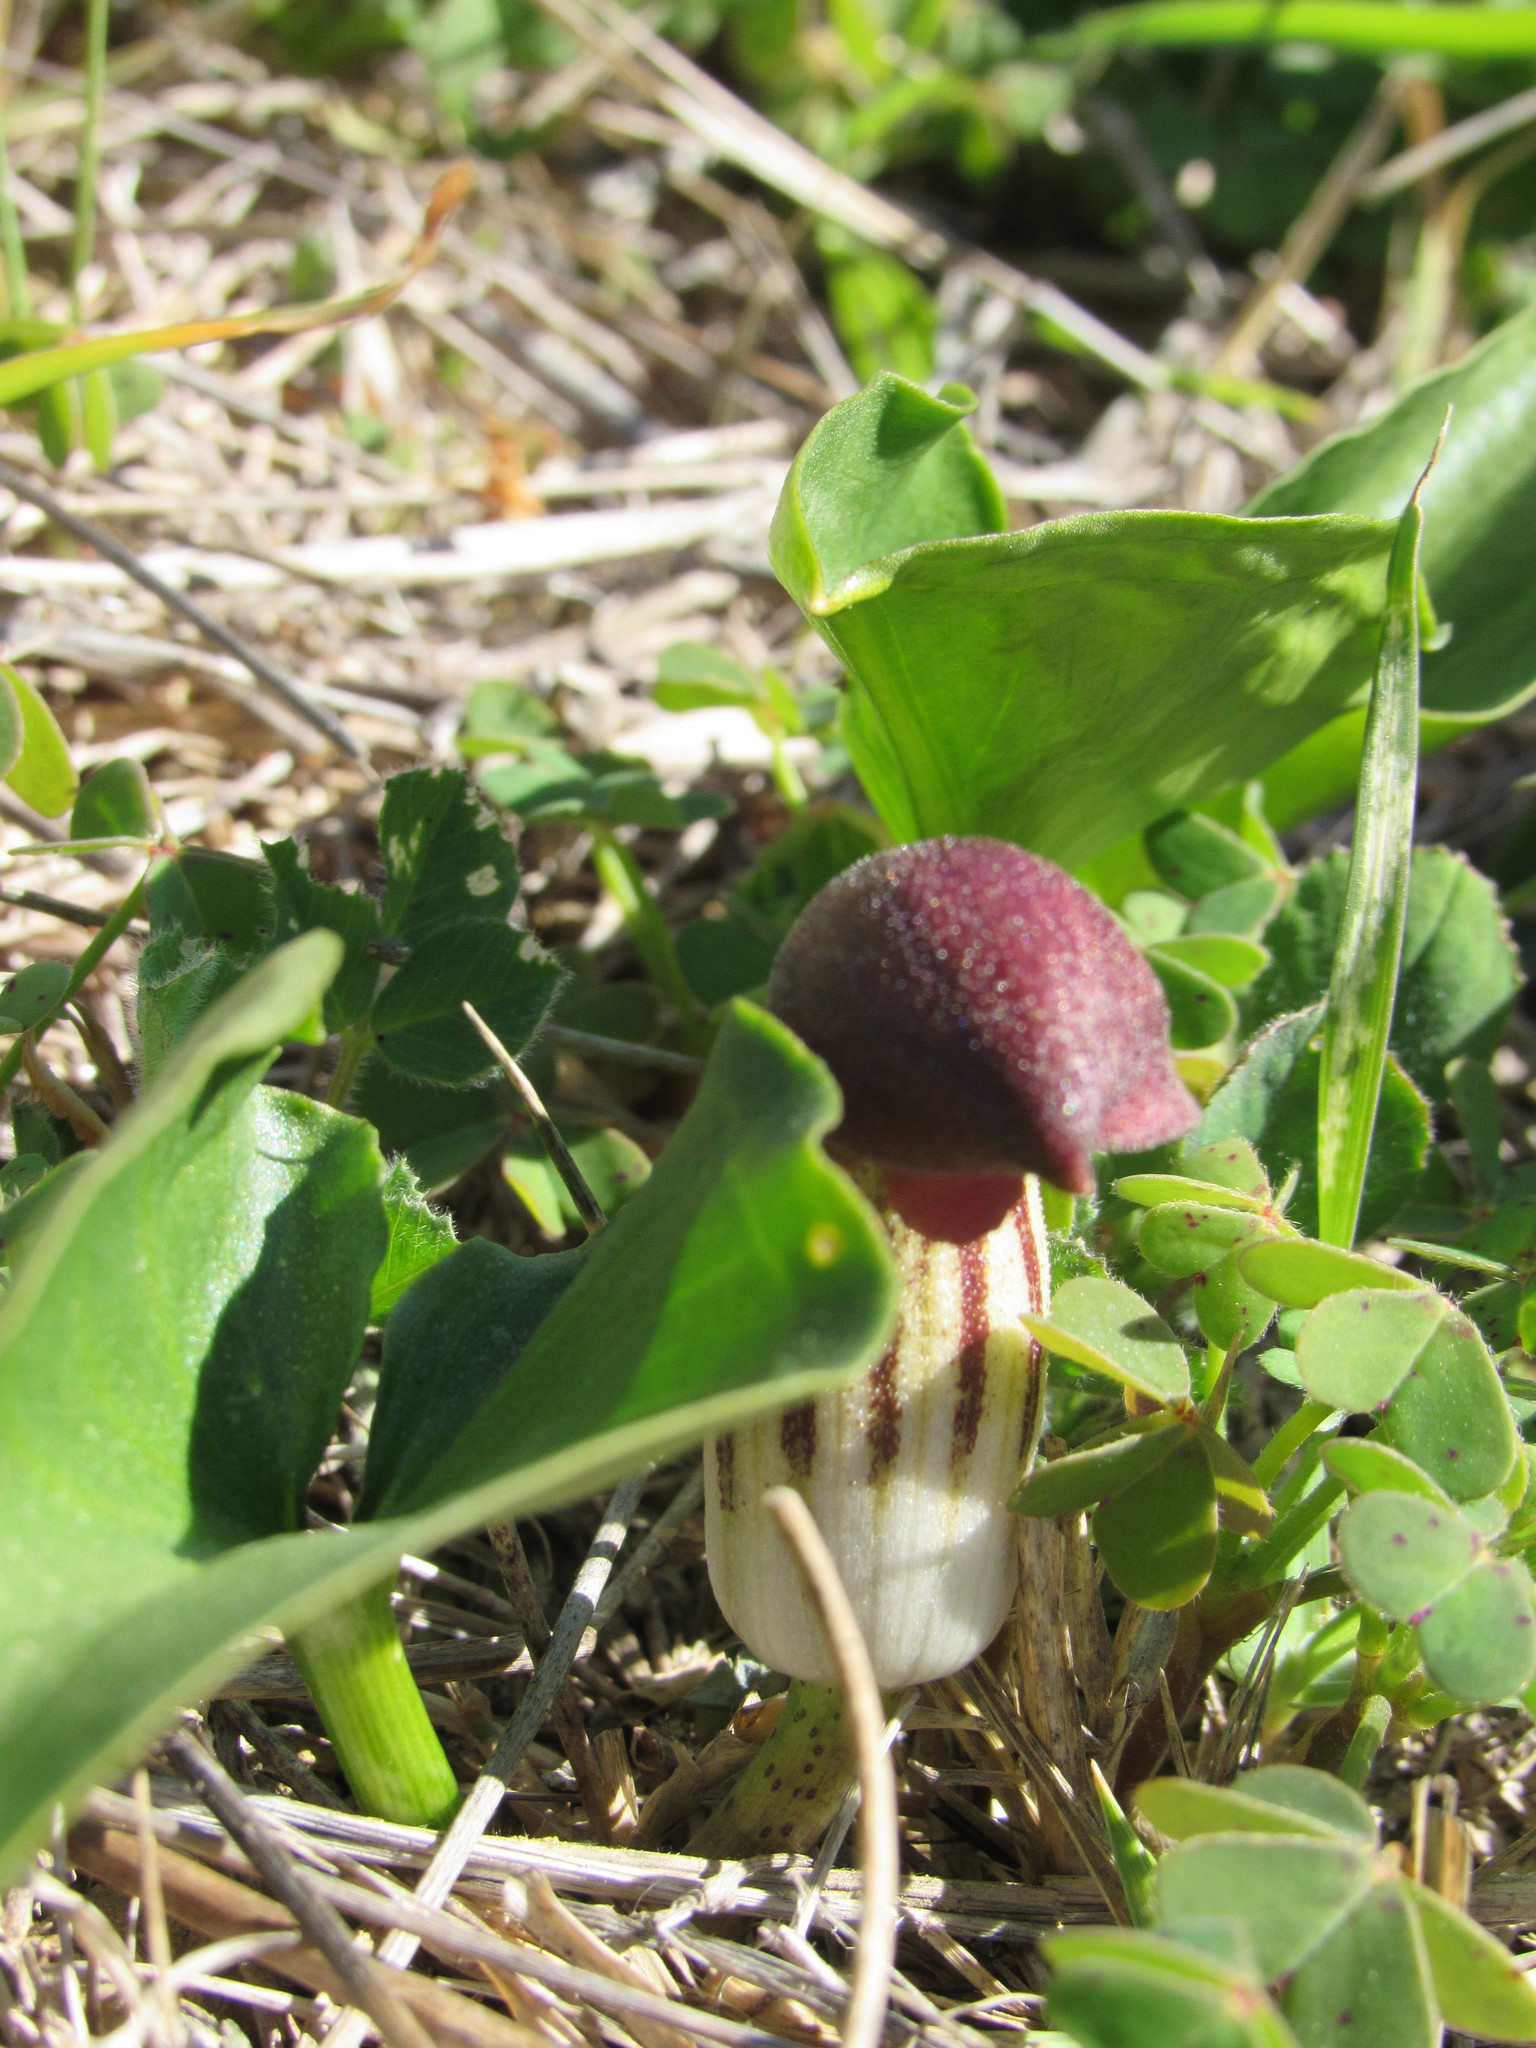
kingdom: Plantae
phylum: Tracheophyta
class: Liliopsida
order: Alismatales
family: Araceae
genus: Arisarum
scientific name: Arisarum simorrhinum
